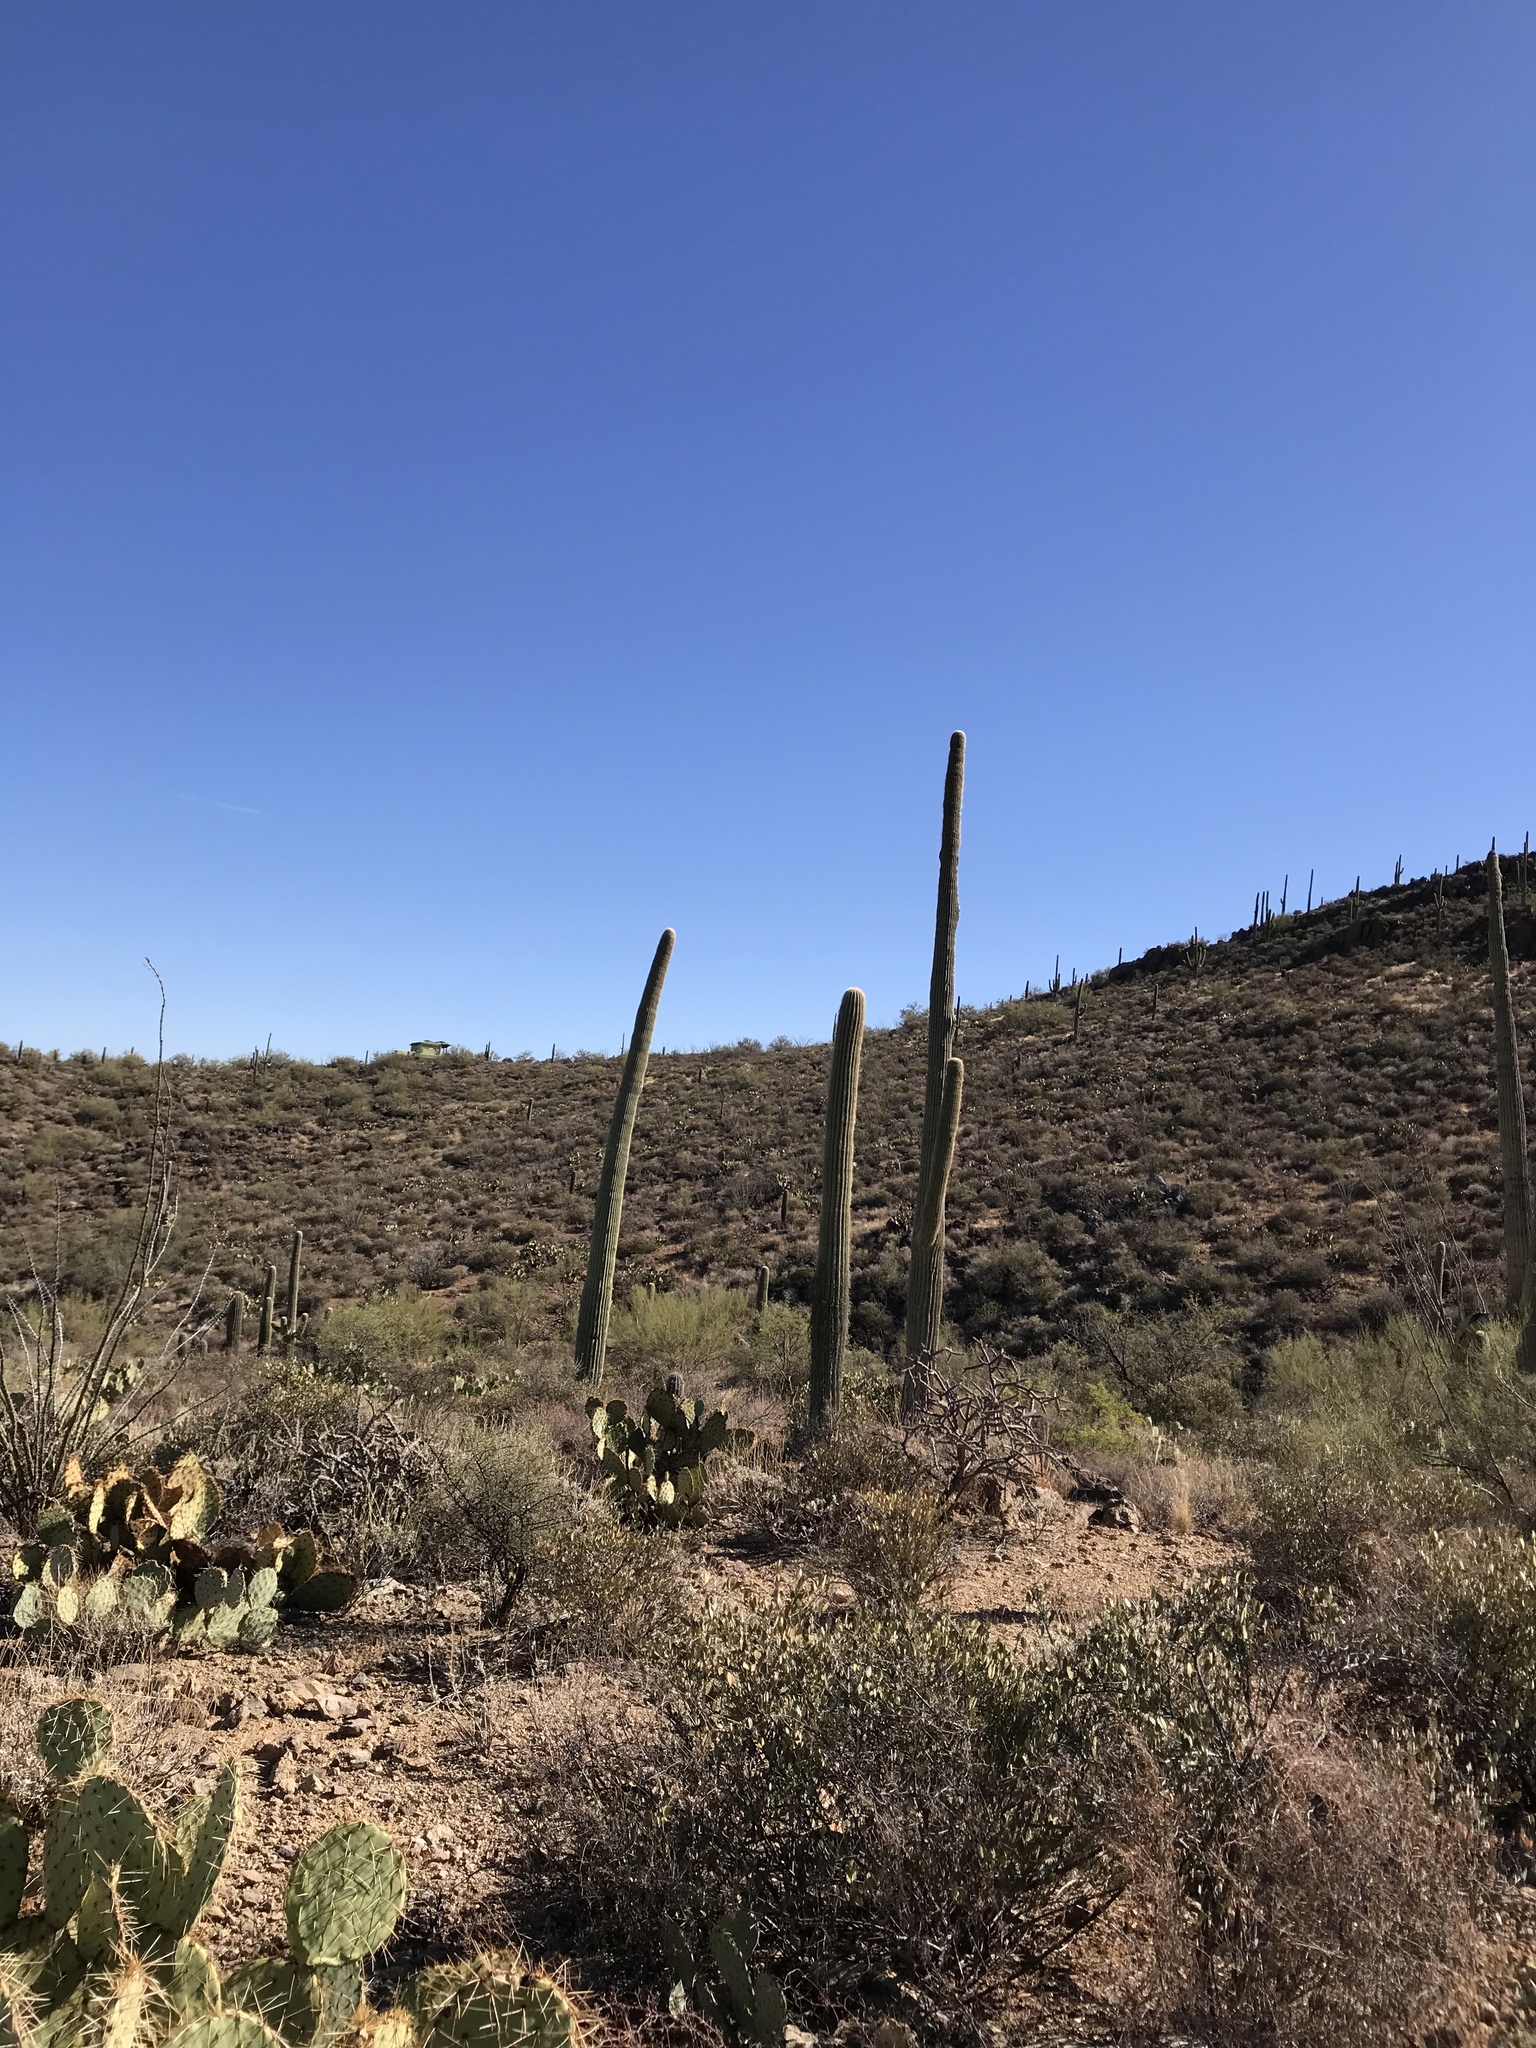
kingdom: Plantae
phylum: Tracheophyta
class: Magnoliopsida
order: Caryophyllales
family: Cactaceae
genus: Carnegiea
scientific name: Carnegiea gigantea
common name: Saguaro
